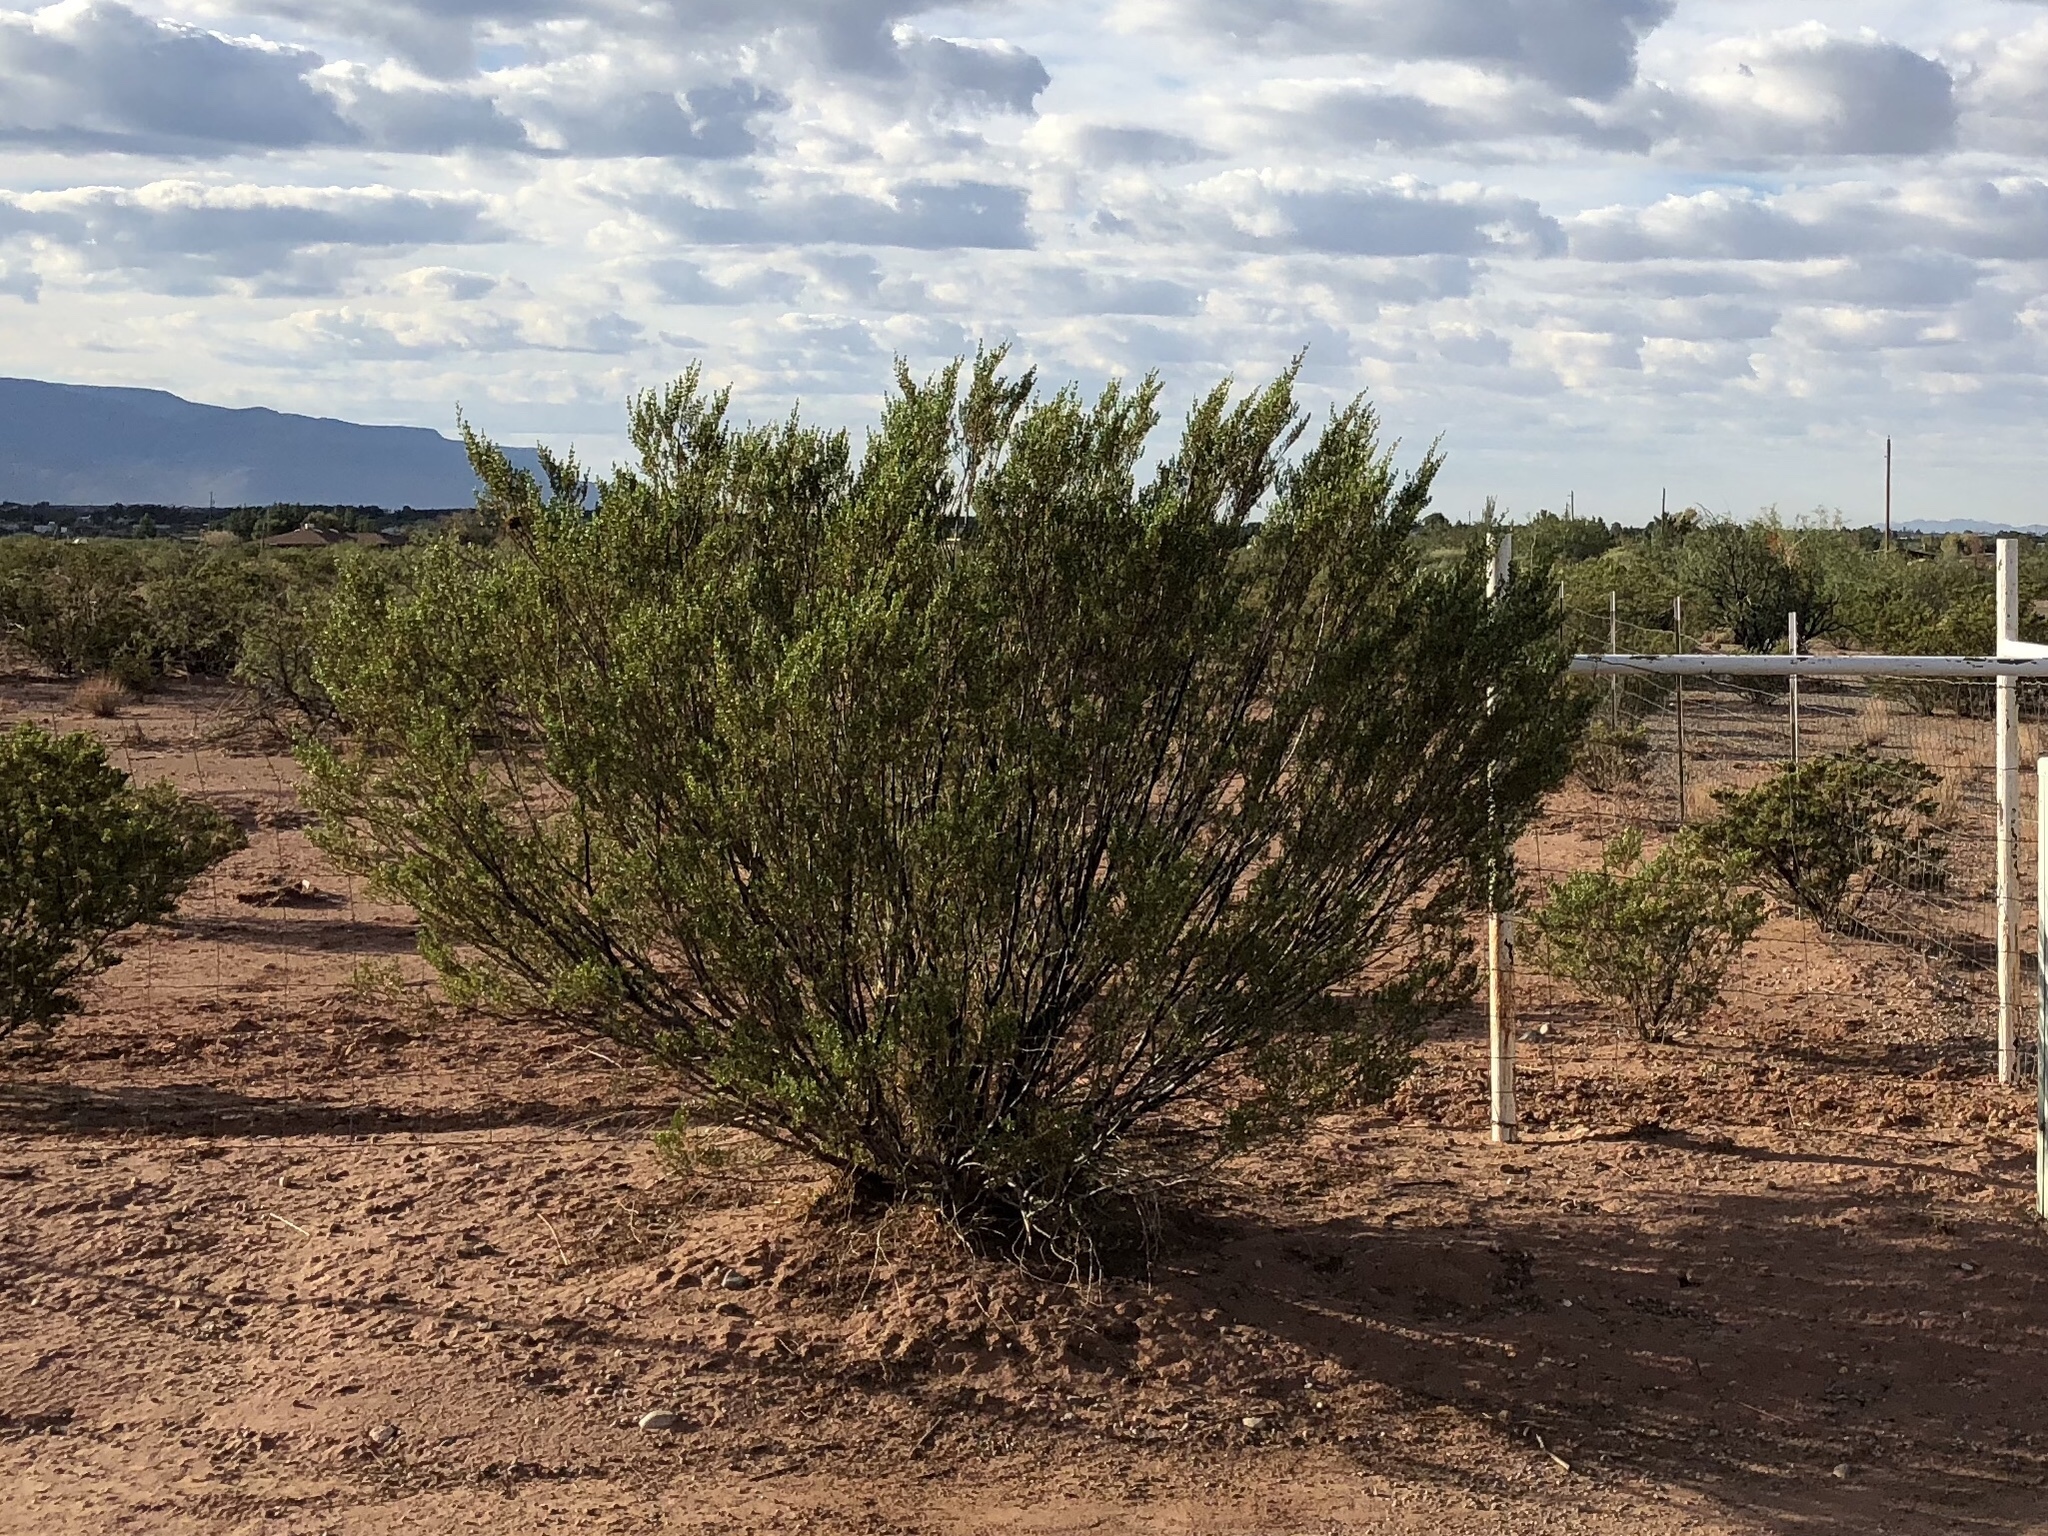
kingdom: Plantae
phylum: Tracheophyta
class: Magnoliopsida
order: Zygophyllales
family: Zygophyllaceae
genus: Larrea
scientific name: Larrea tridentata
